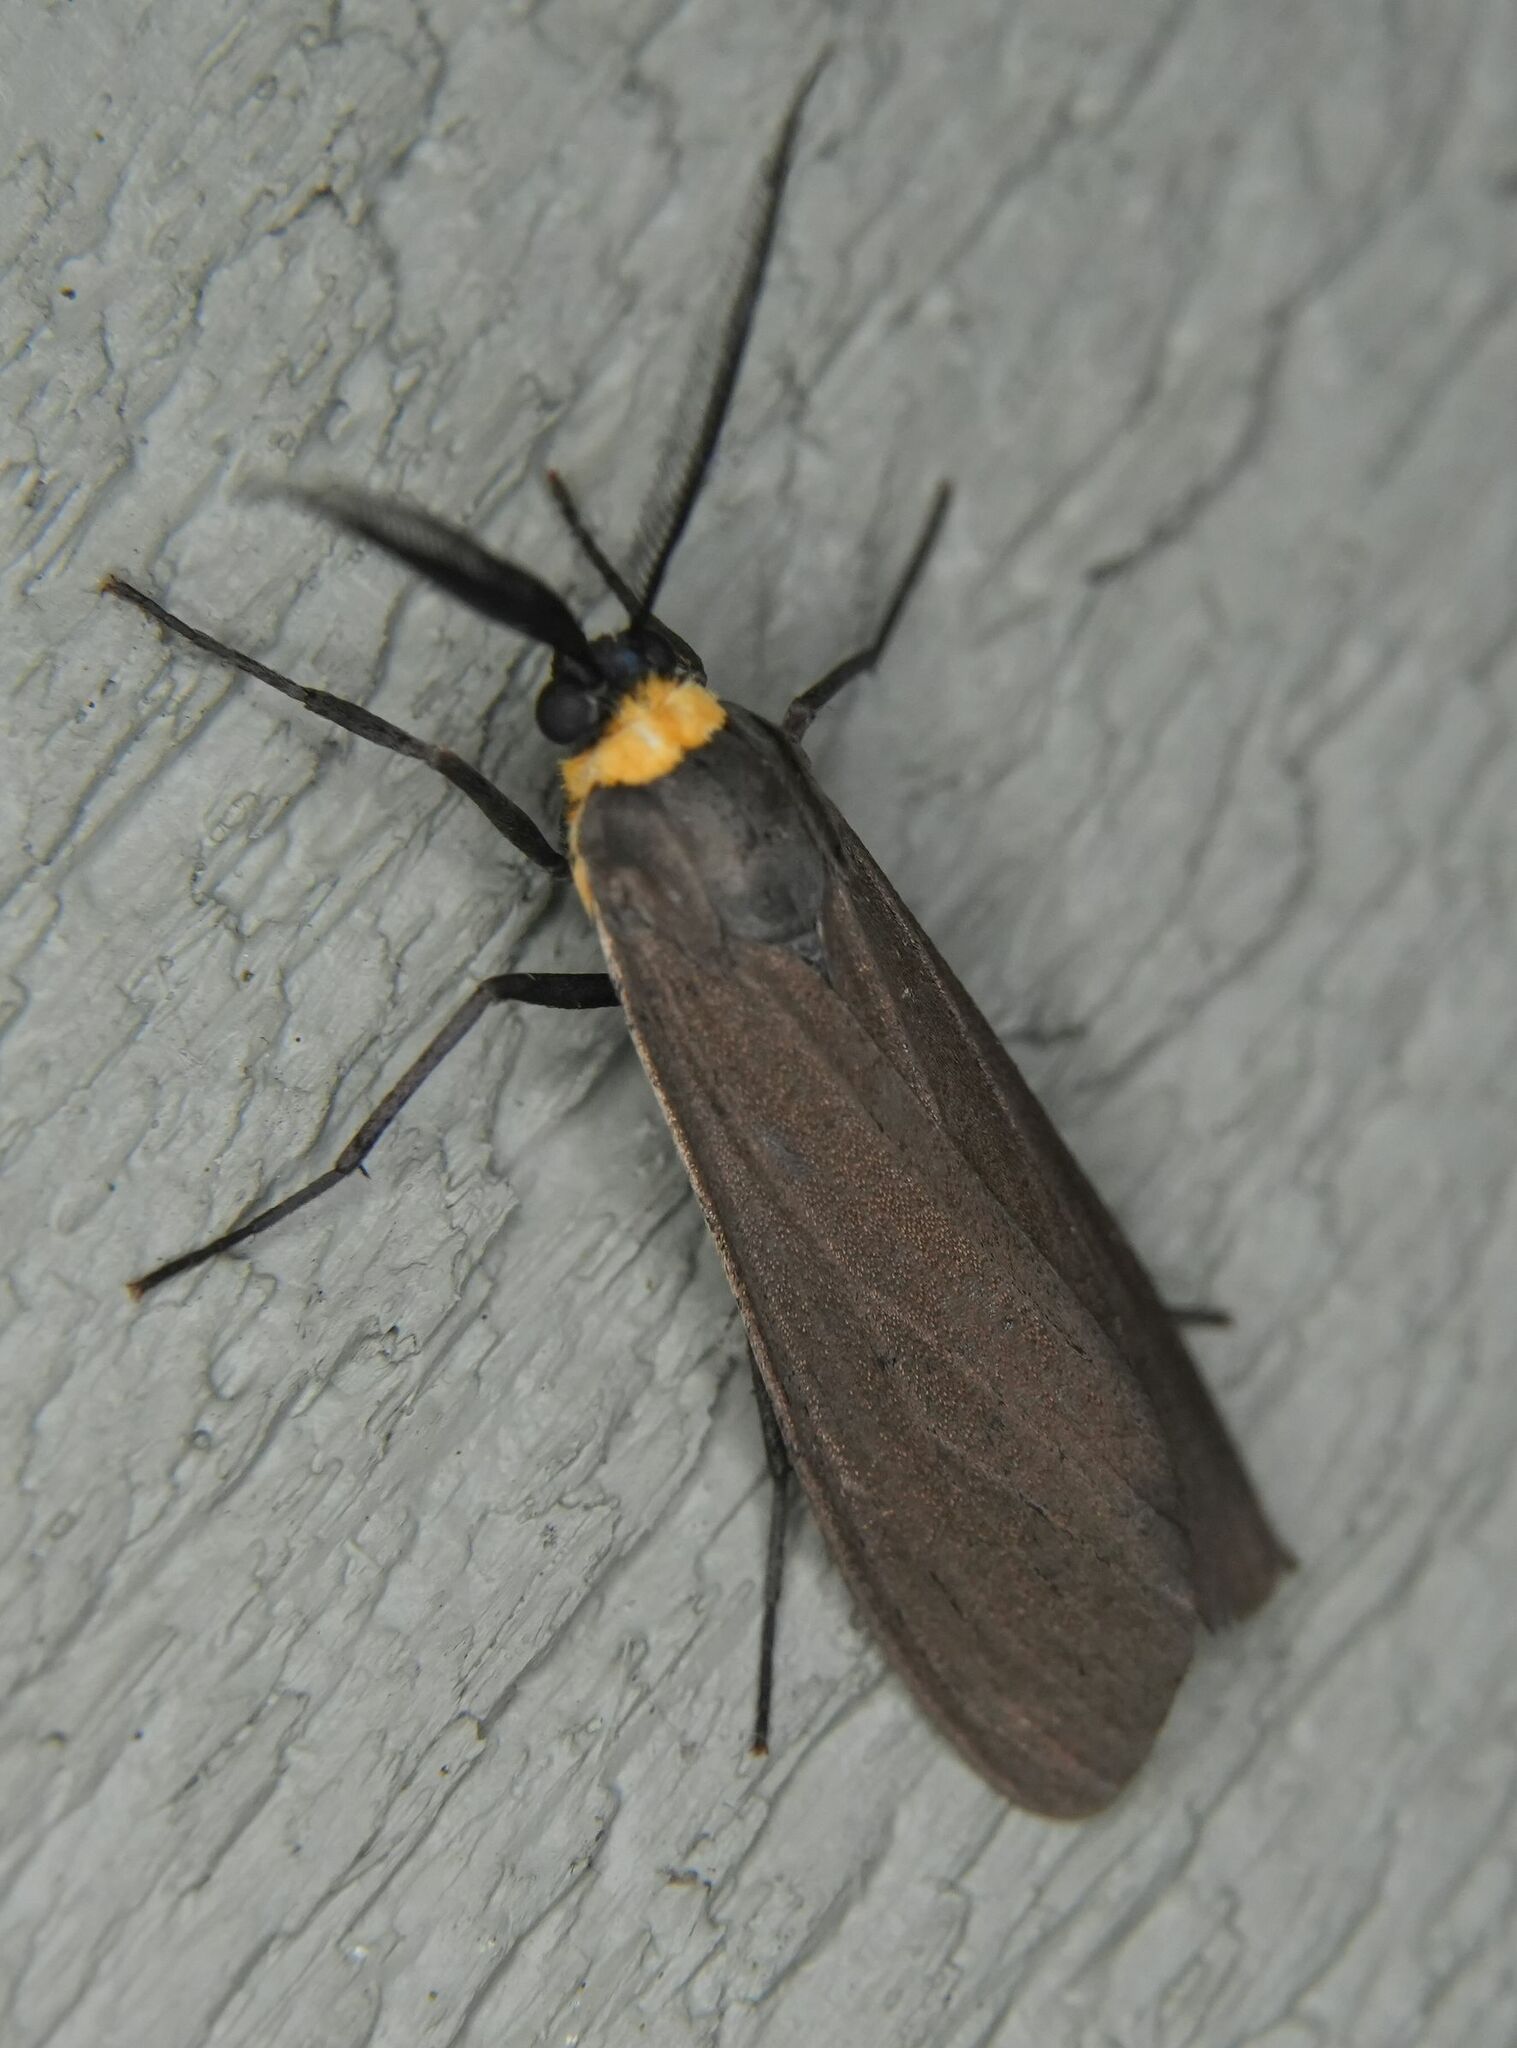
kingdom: Animalia
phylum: Arthropoda
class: Insecta
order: Lepidoptera
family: Erebidae
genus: Cisseps
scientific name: Cisseps fulvicollis
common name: Yellow-collared scape moth
